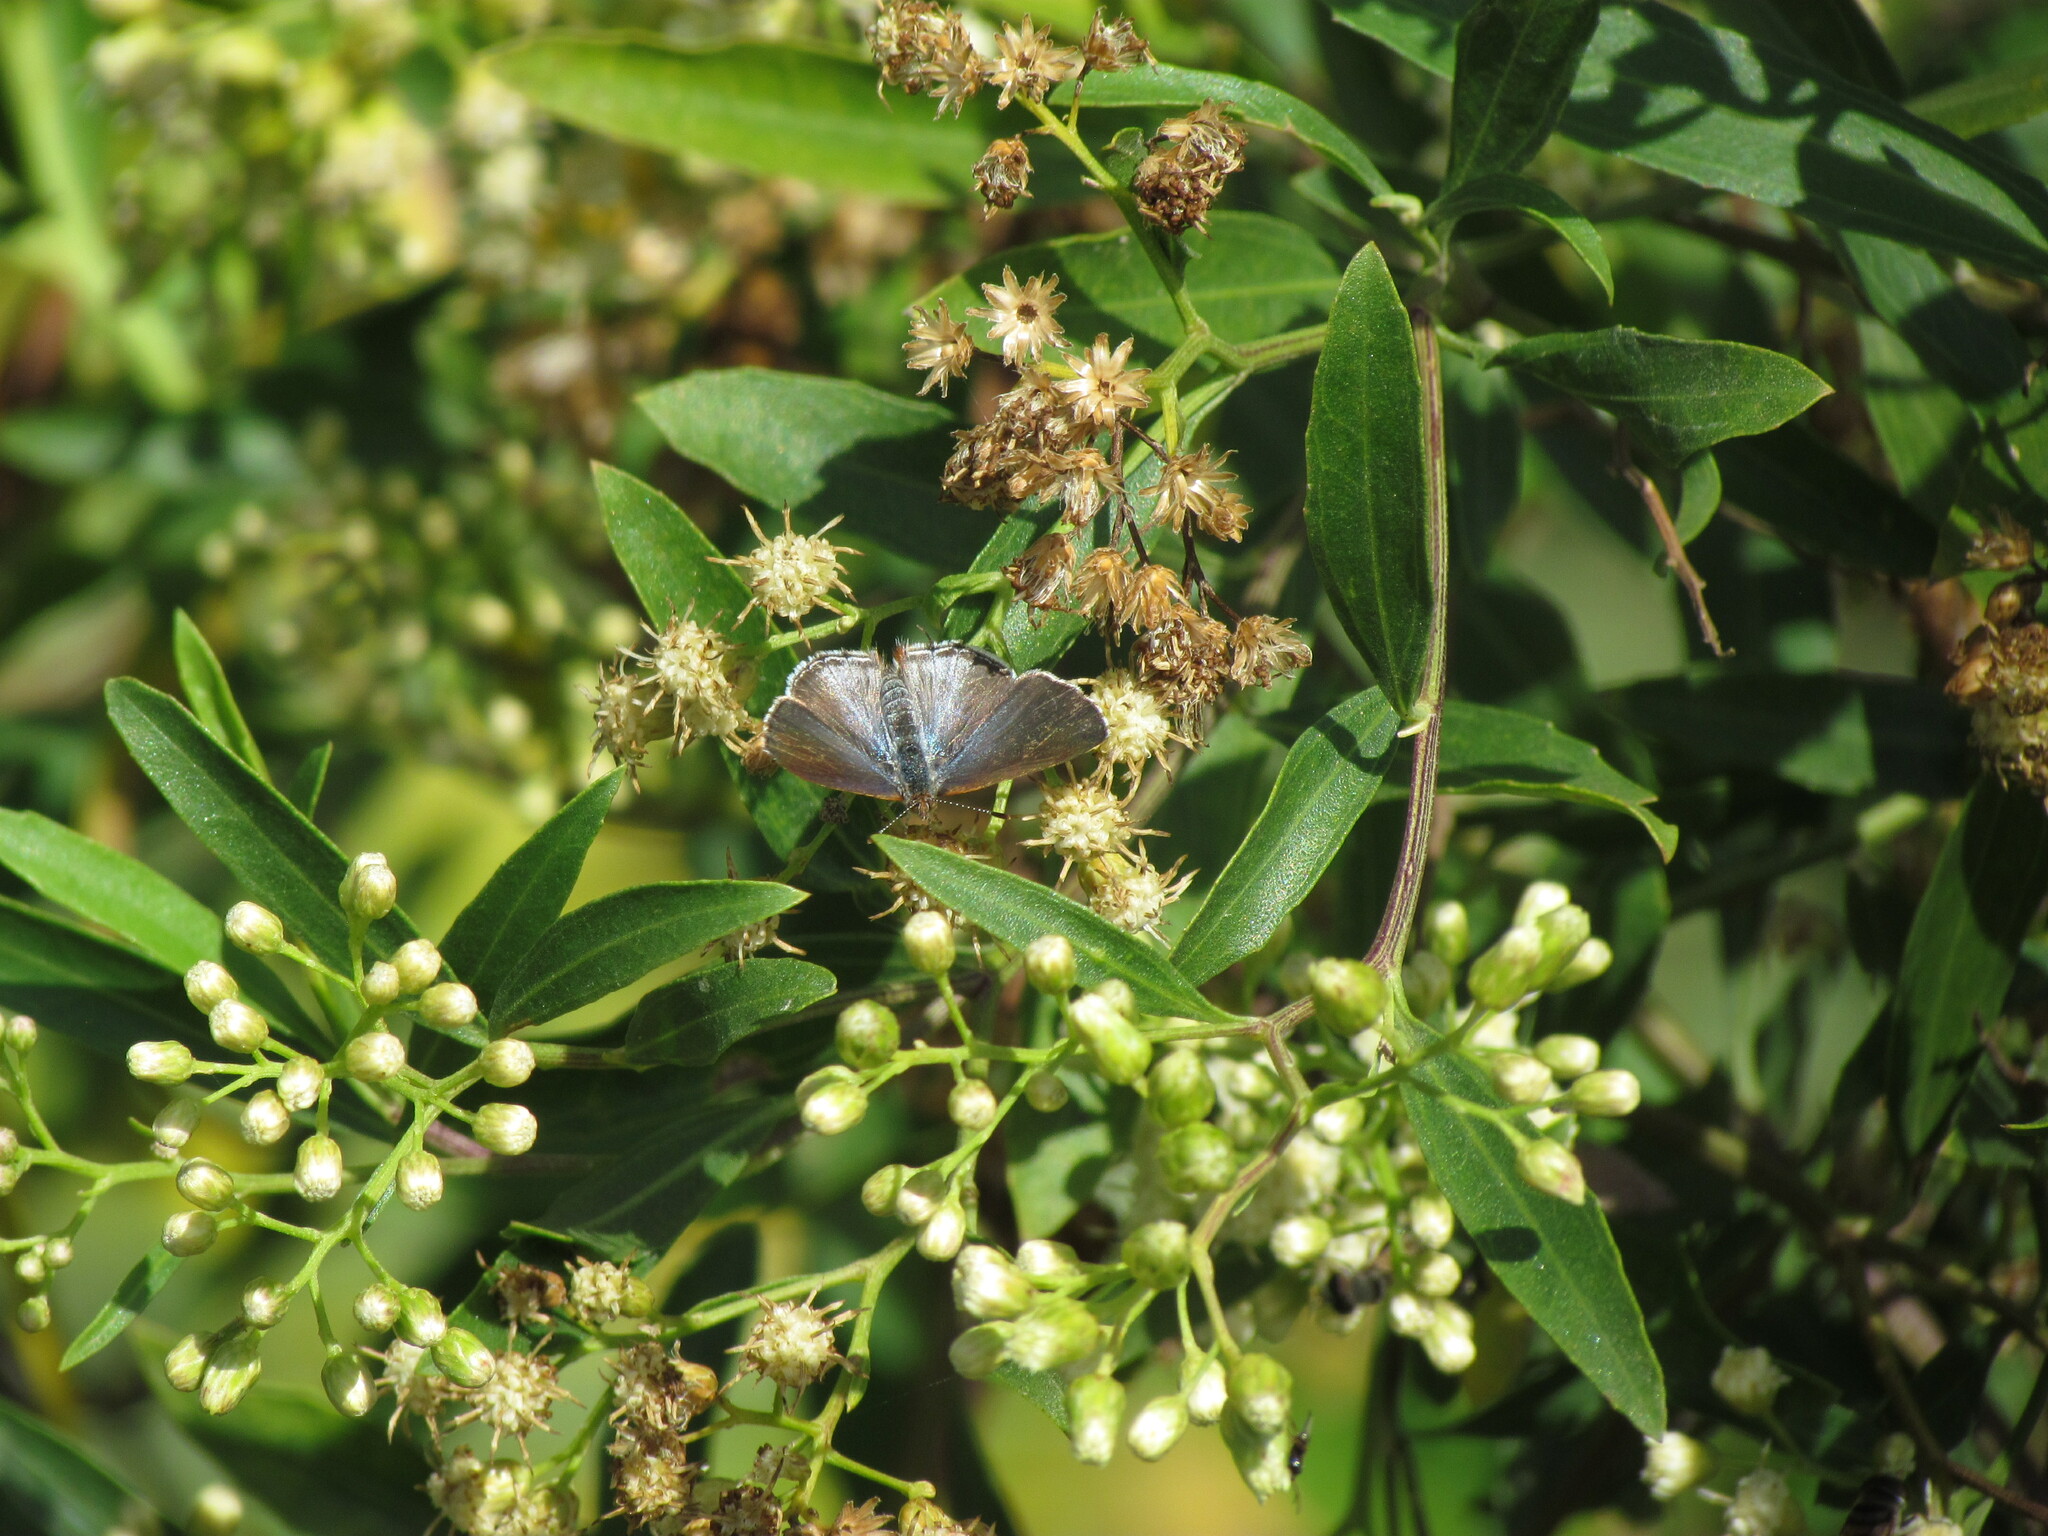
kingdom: Animalia
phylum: Arthropoda
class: Insecta
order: Lepidoptera
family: Lycaenidae
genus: Chlorostrymon
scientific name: Chlorostrymon simaethis
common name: Silver-banded hairstreak
